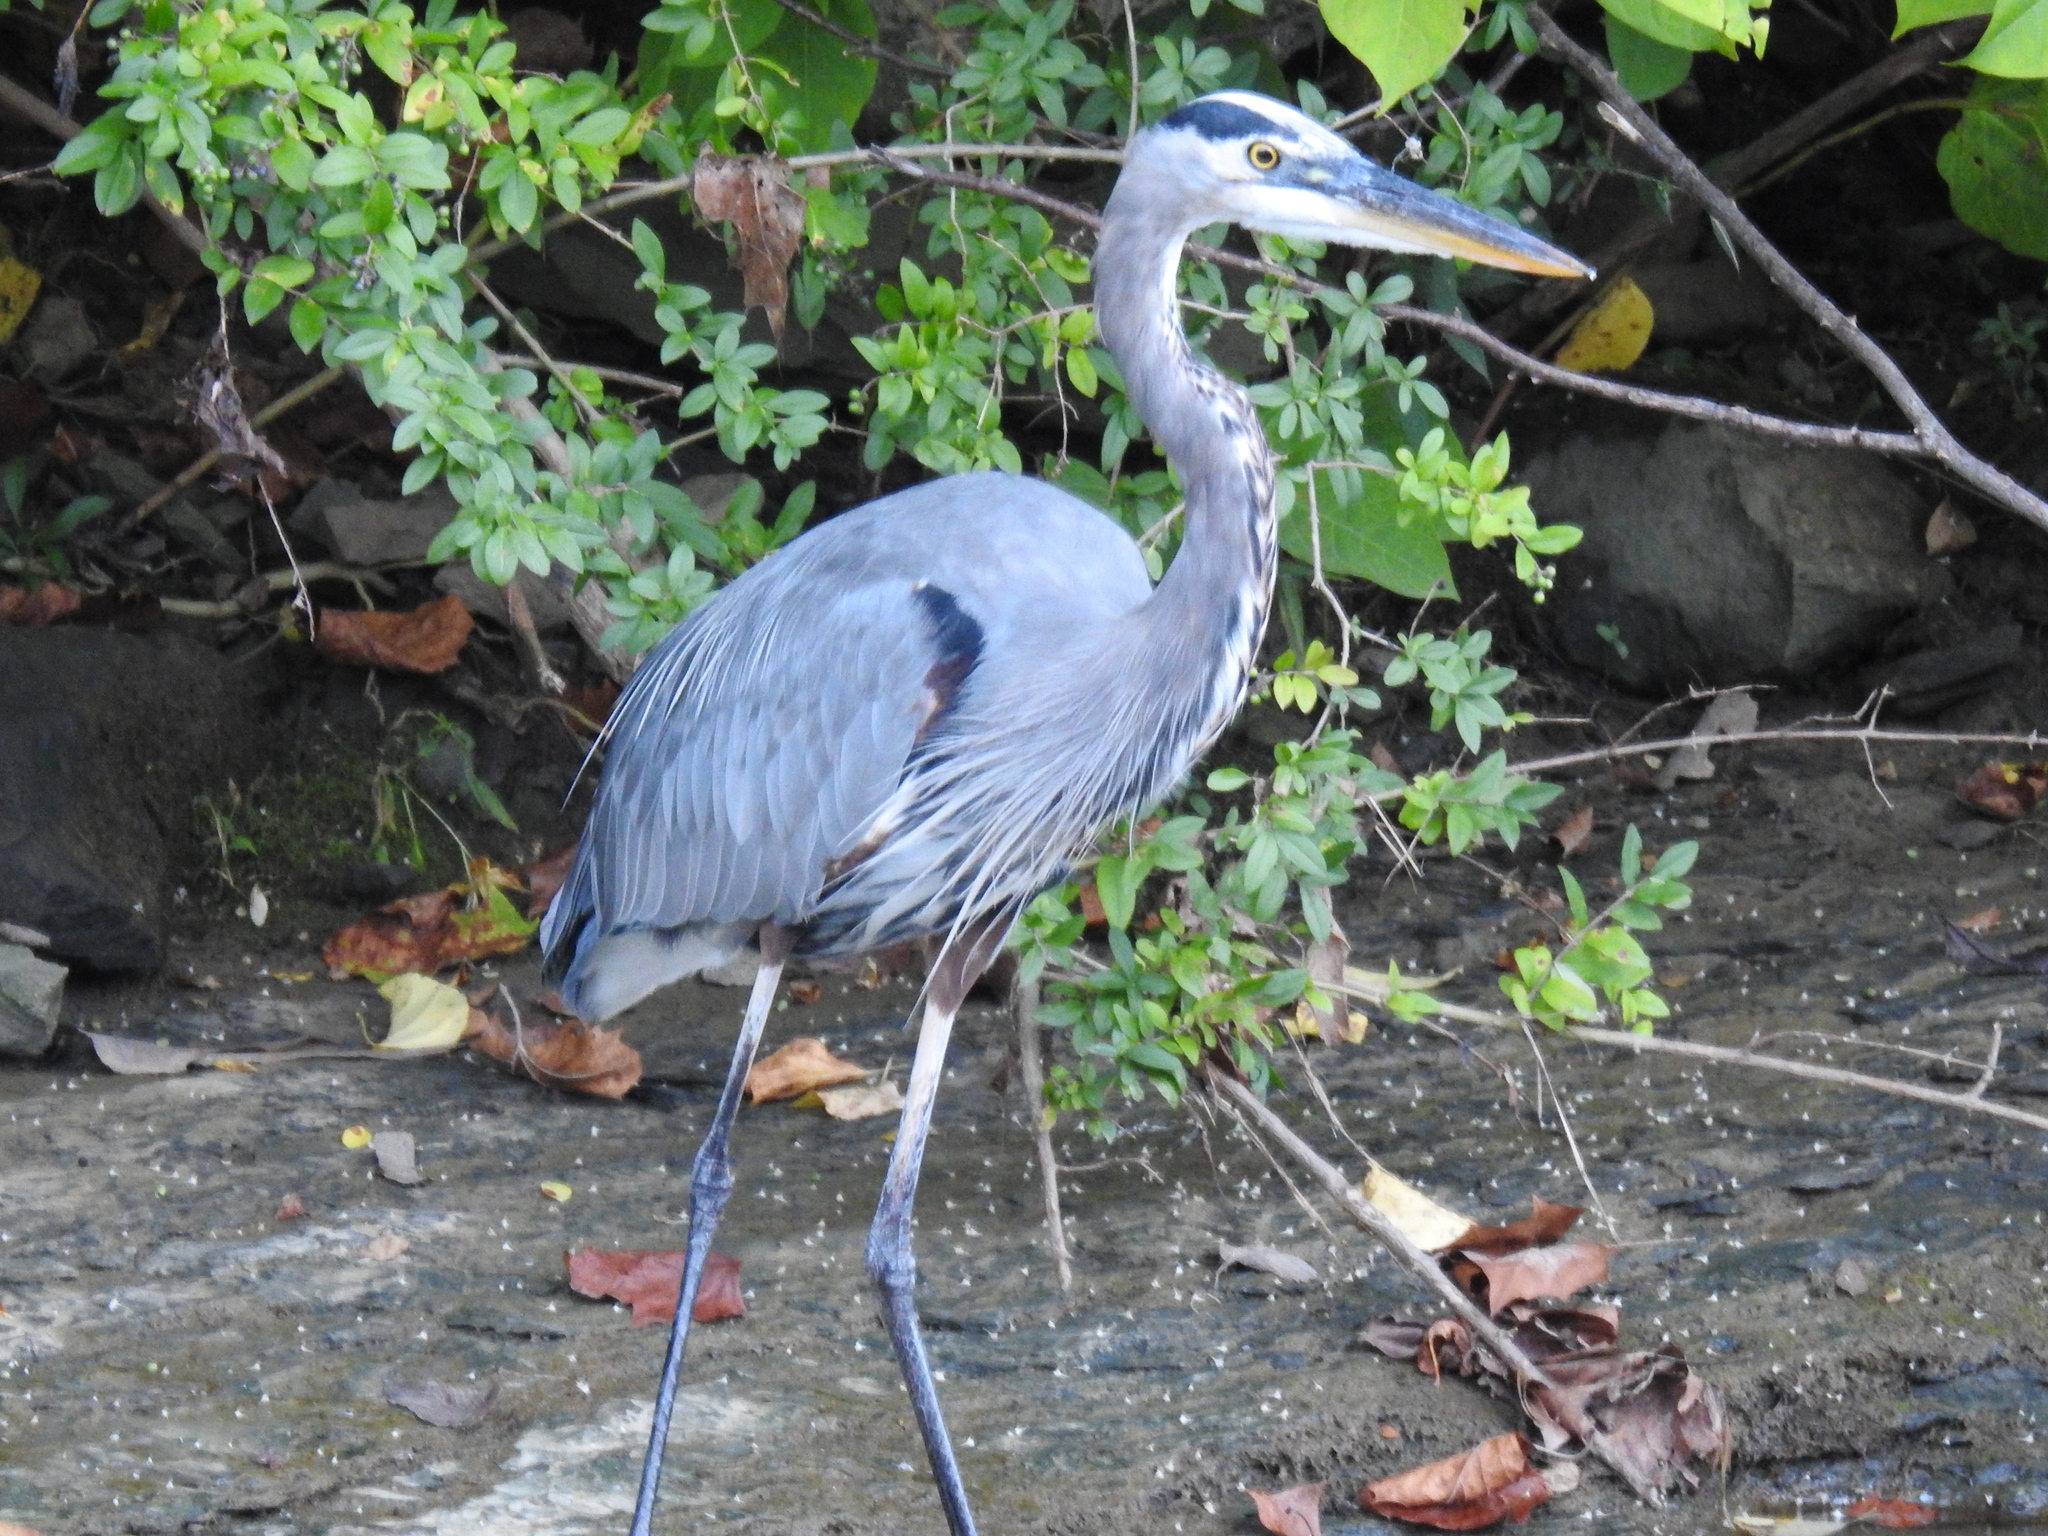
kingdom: Animalia
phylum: Chordata
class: Aves
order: Pelecaniformes
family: Ardeidae
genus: Ardea
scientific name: Ardea herodias
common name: Great blue heron
